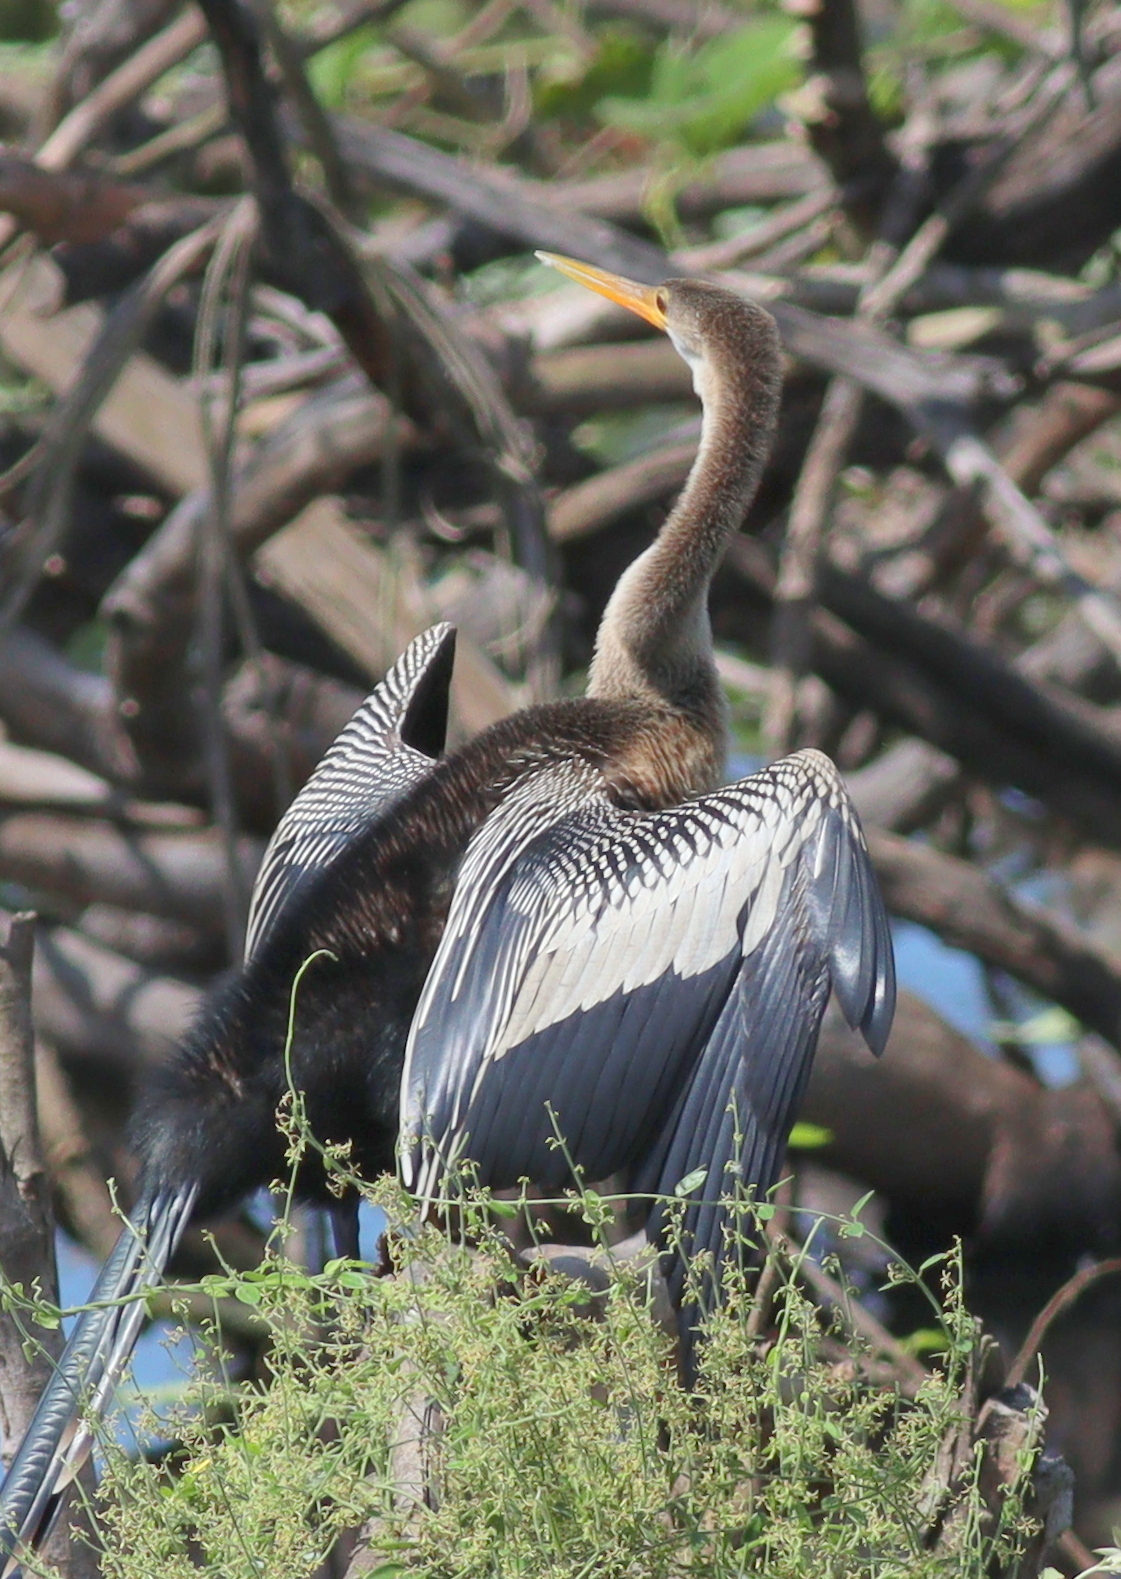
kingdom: Animalia
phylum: Chordata
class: Aves
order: Suliformes
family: Anhingidae
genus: Anhinga
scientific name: Anhinga anhinga
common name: Anhinga
